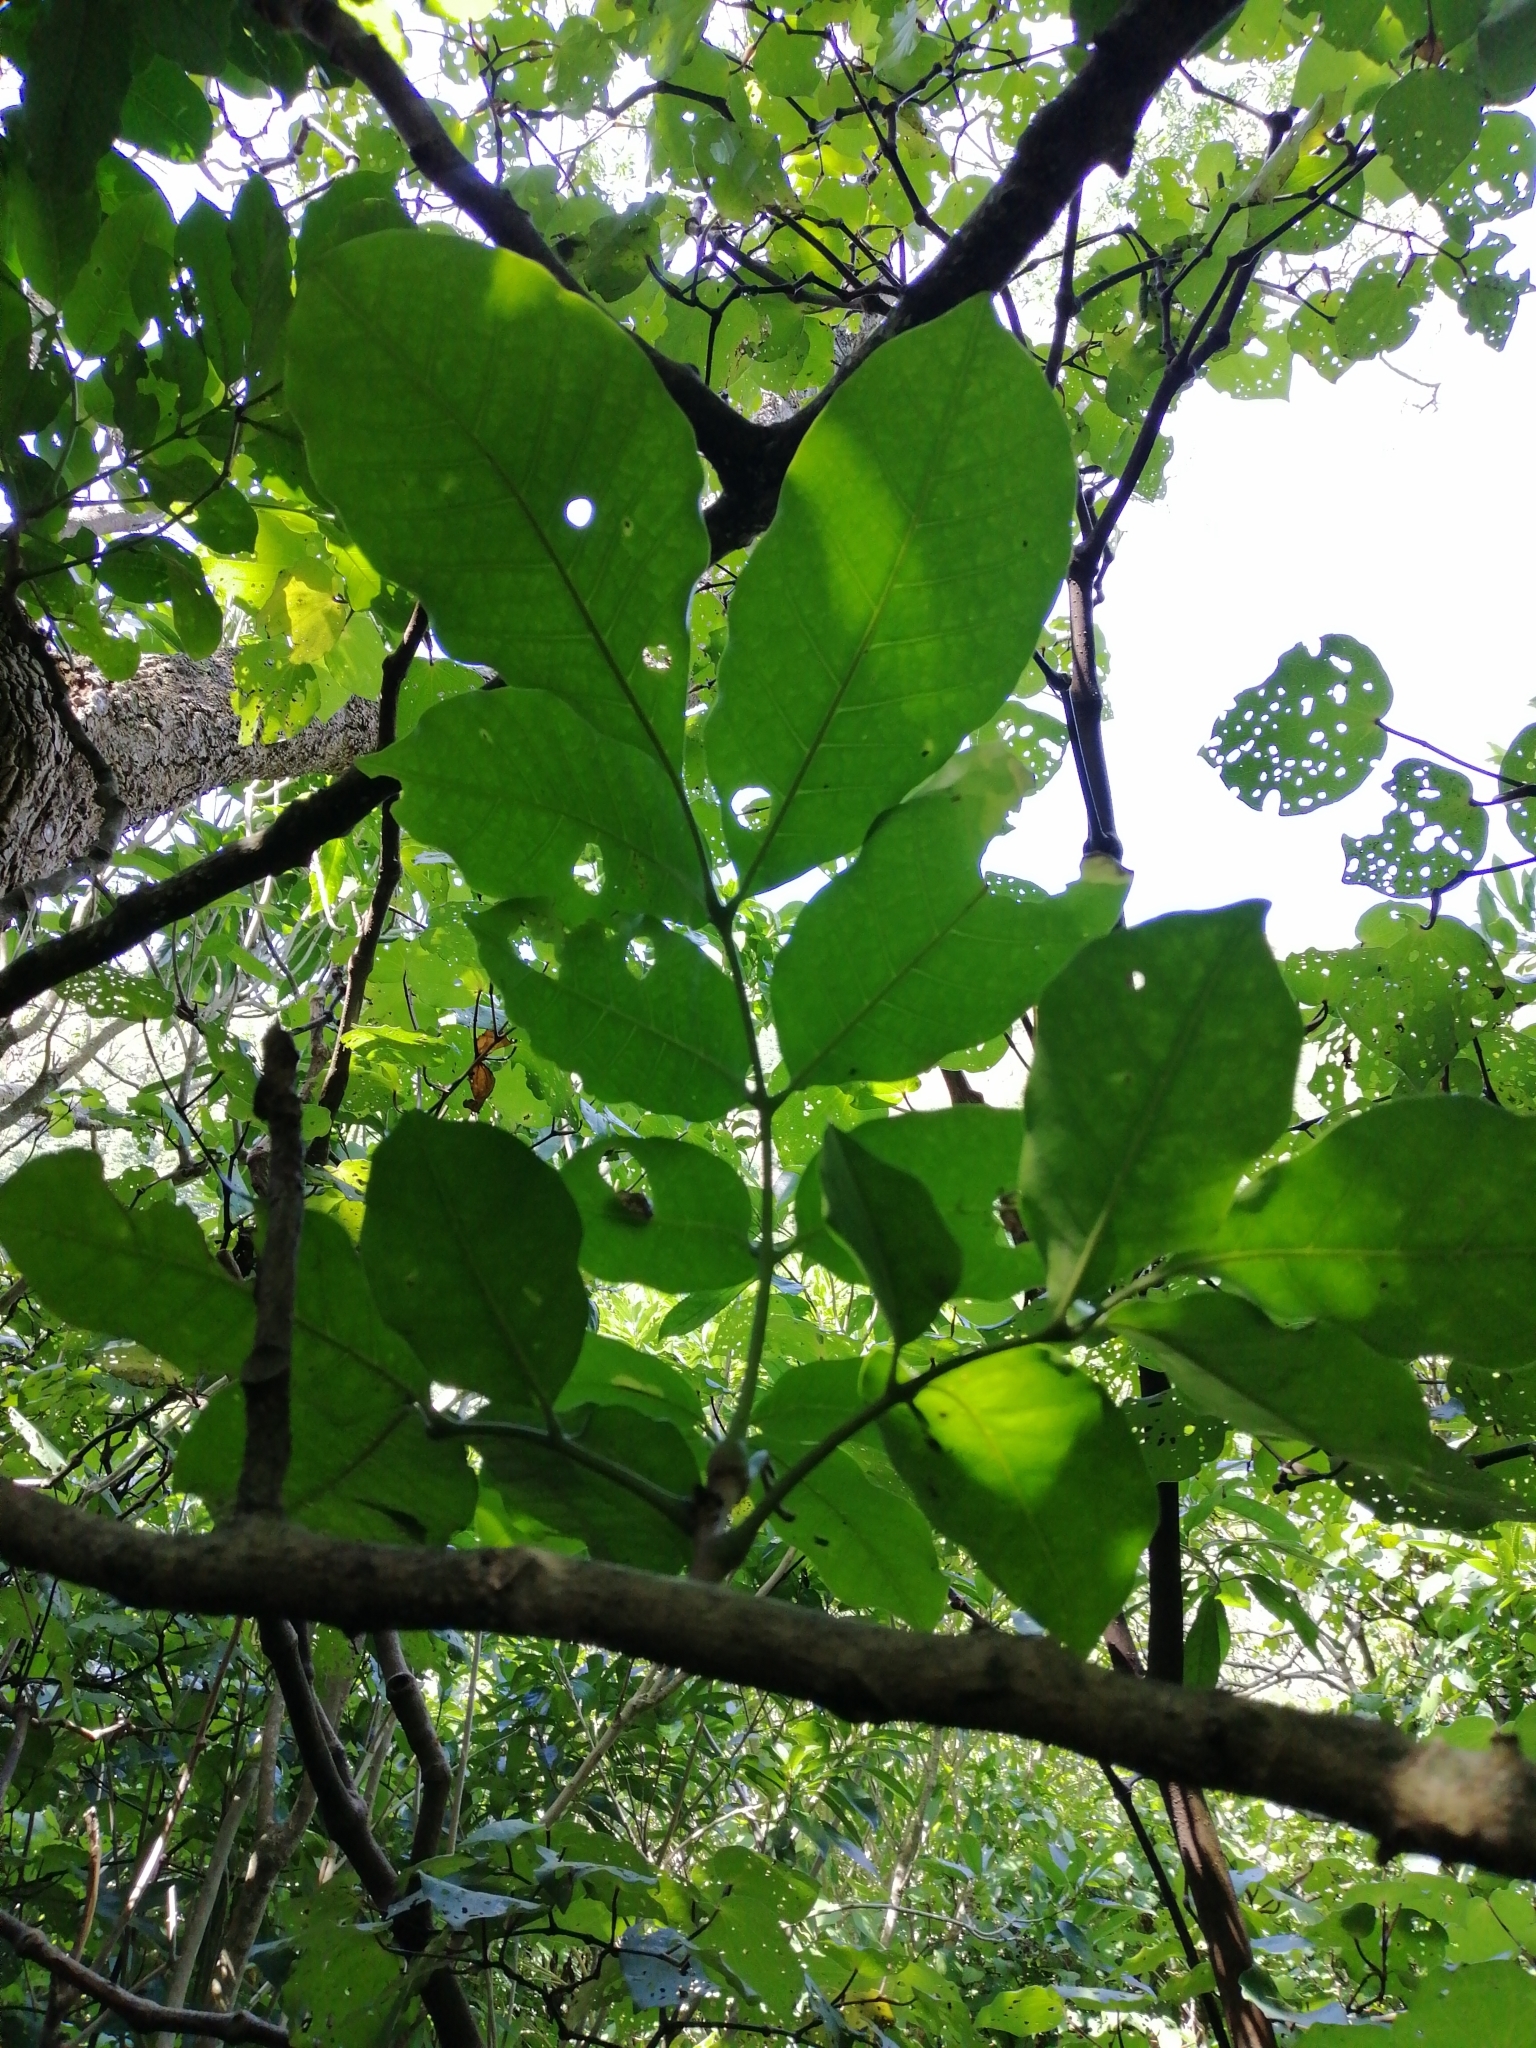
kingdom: Plantae
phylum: Tracheophyta
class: Magnoliopsida
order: Sapindales
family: Meliaceae
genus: Didymocheton
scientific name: Didymocheton spectabilis
